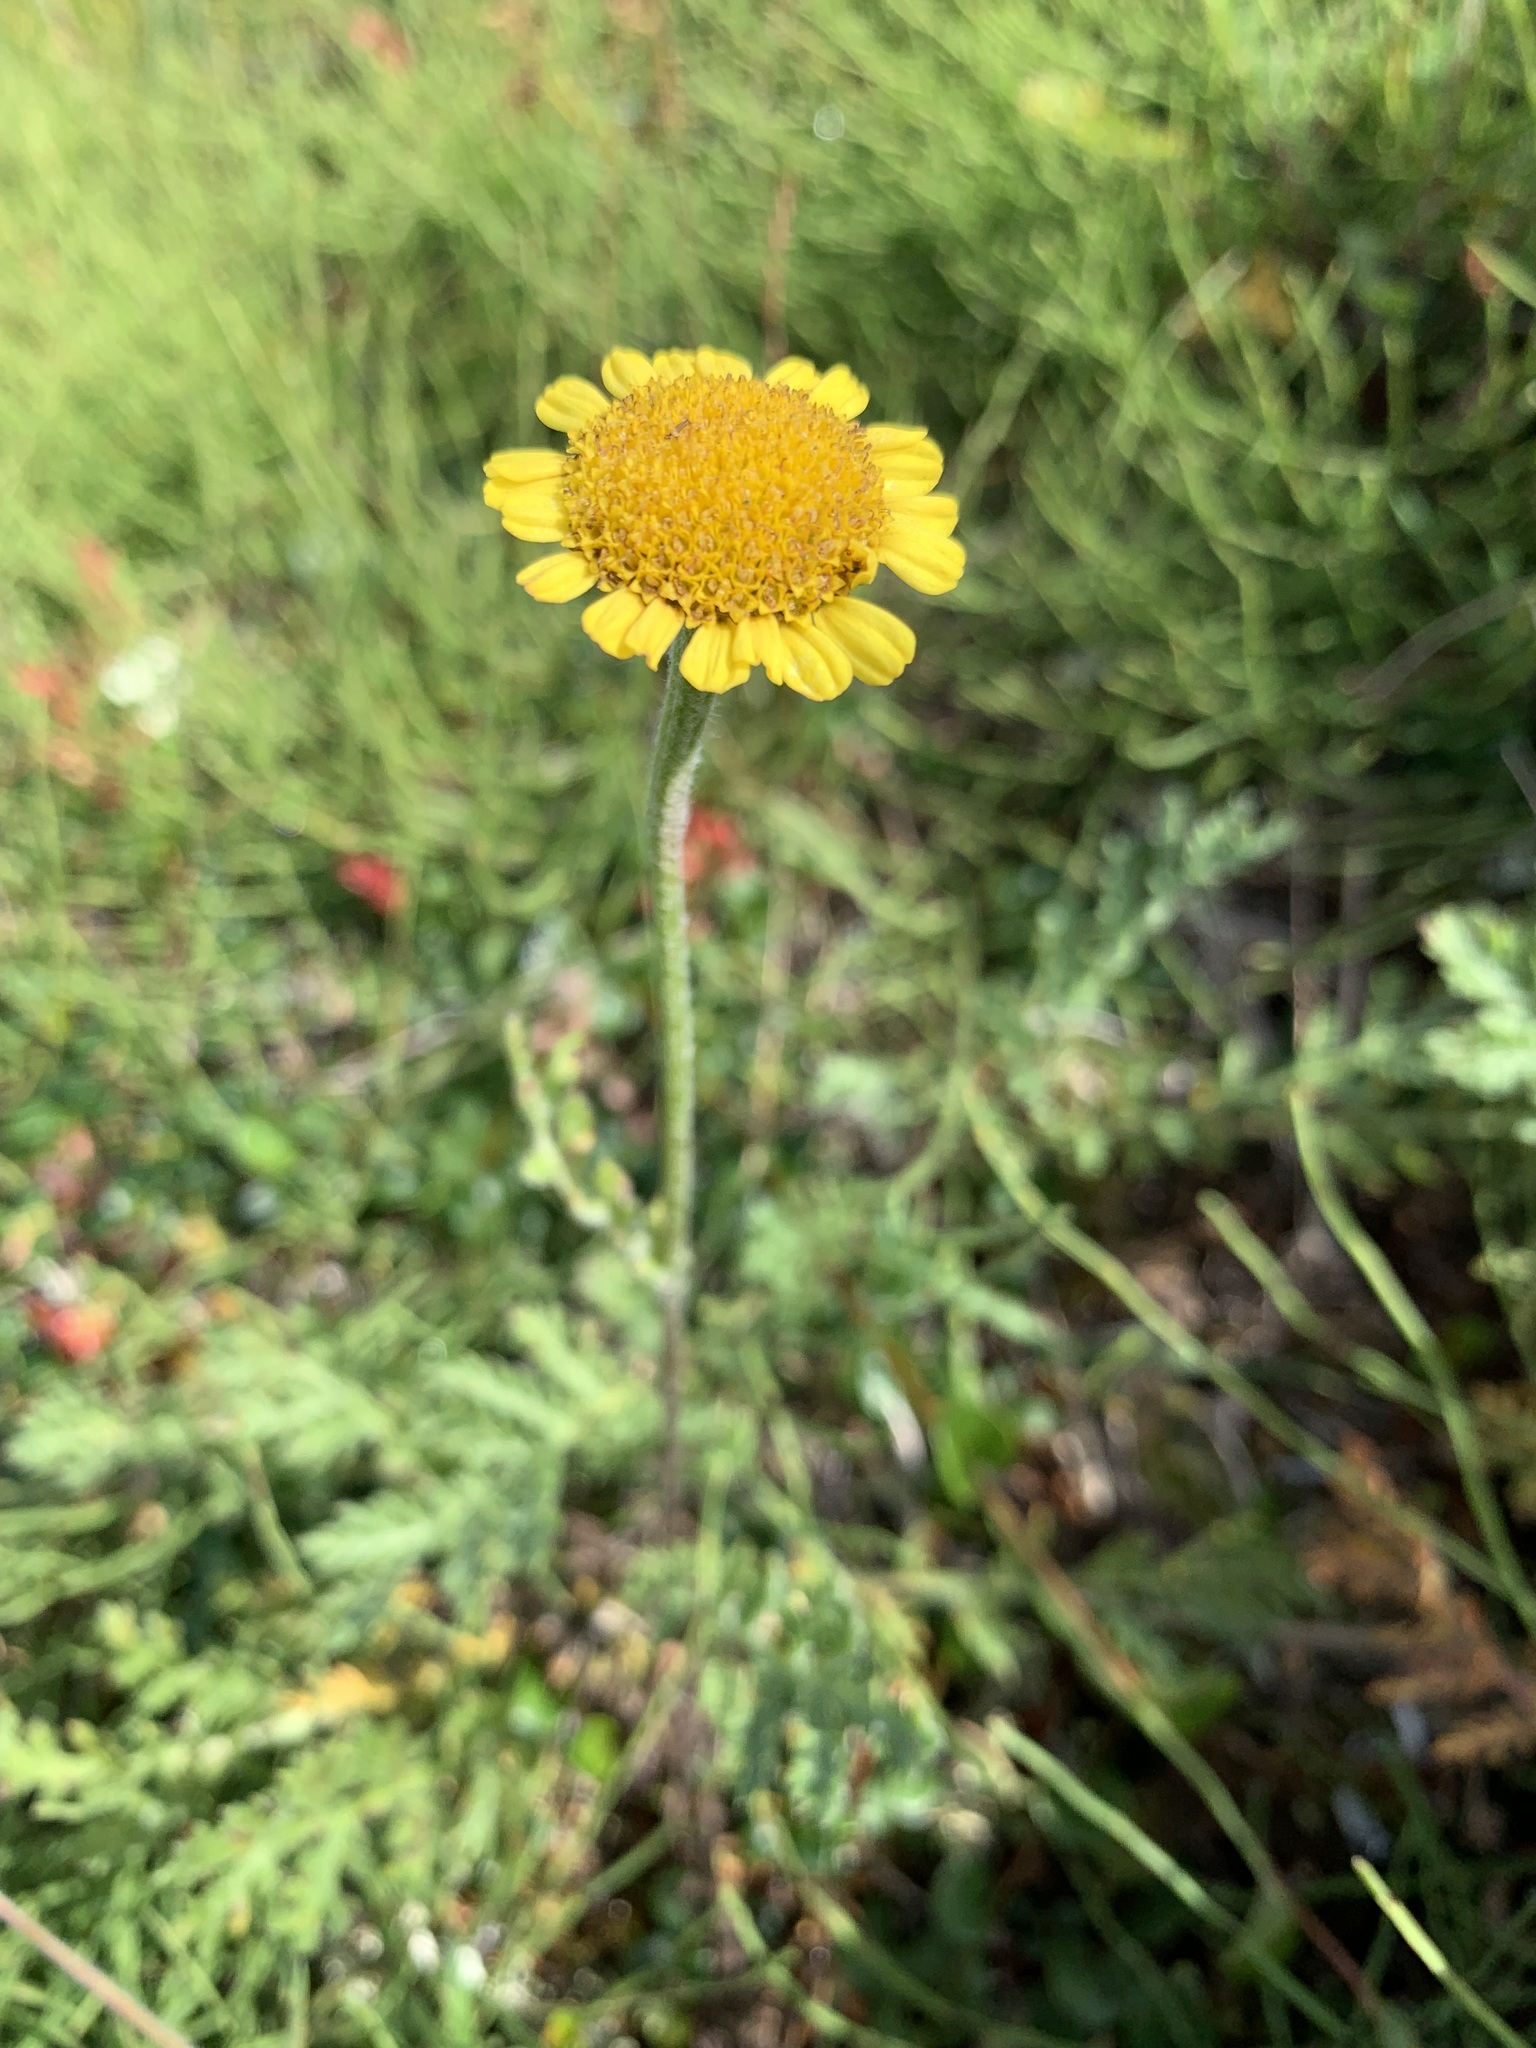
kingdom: Plantae
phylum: Tracheophyta
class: Magnoliopsida
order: Asterales
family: Asteraceae
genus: Tanacetum
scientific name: Tanacetum bipinnatum
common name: Dwarf tansy
